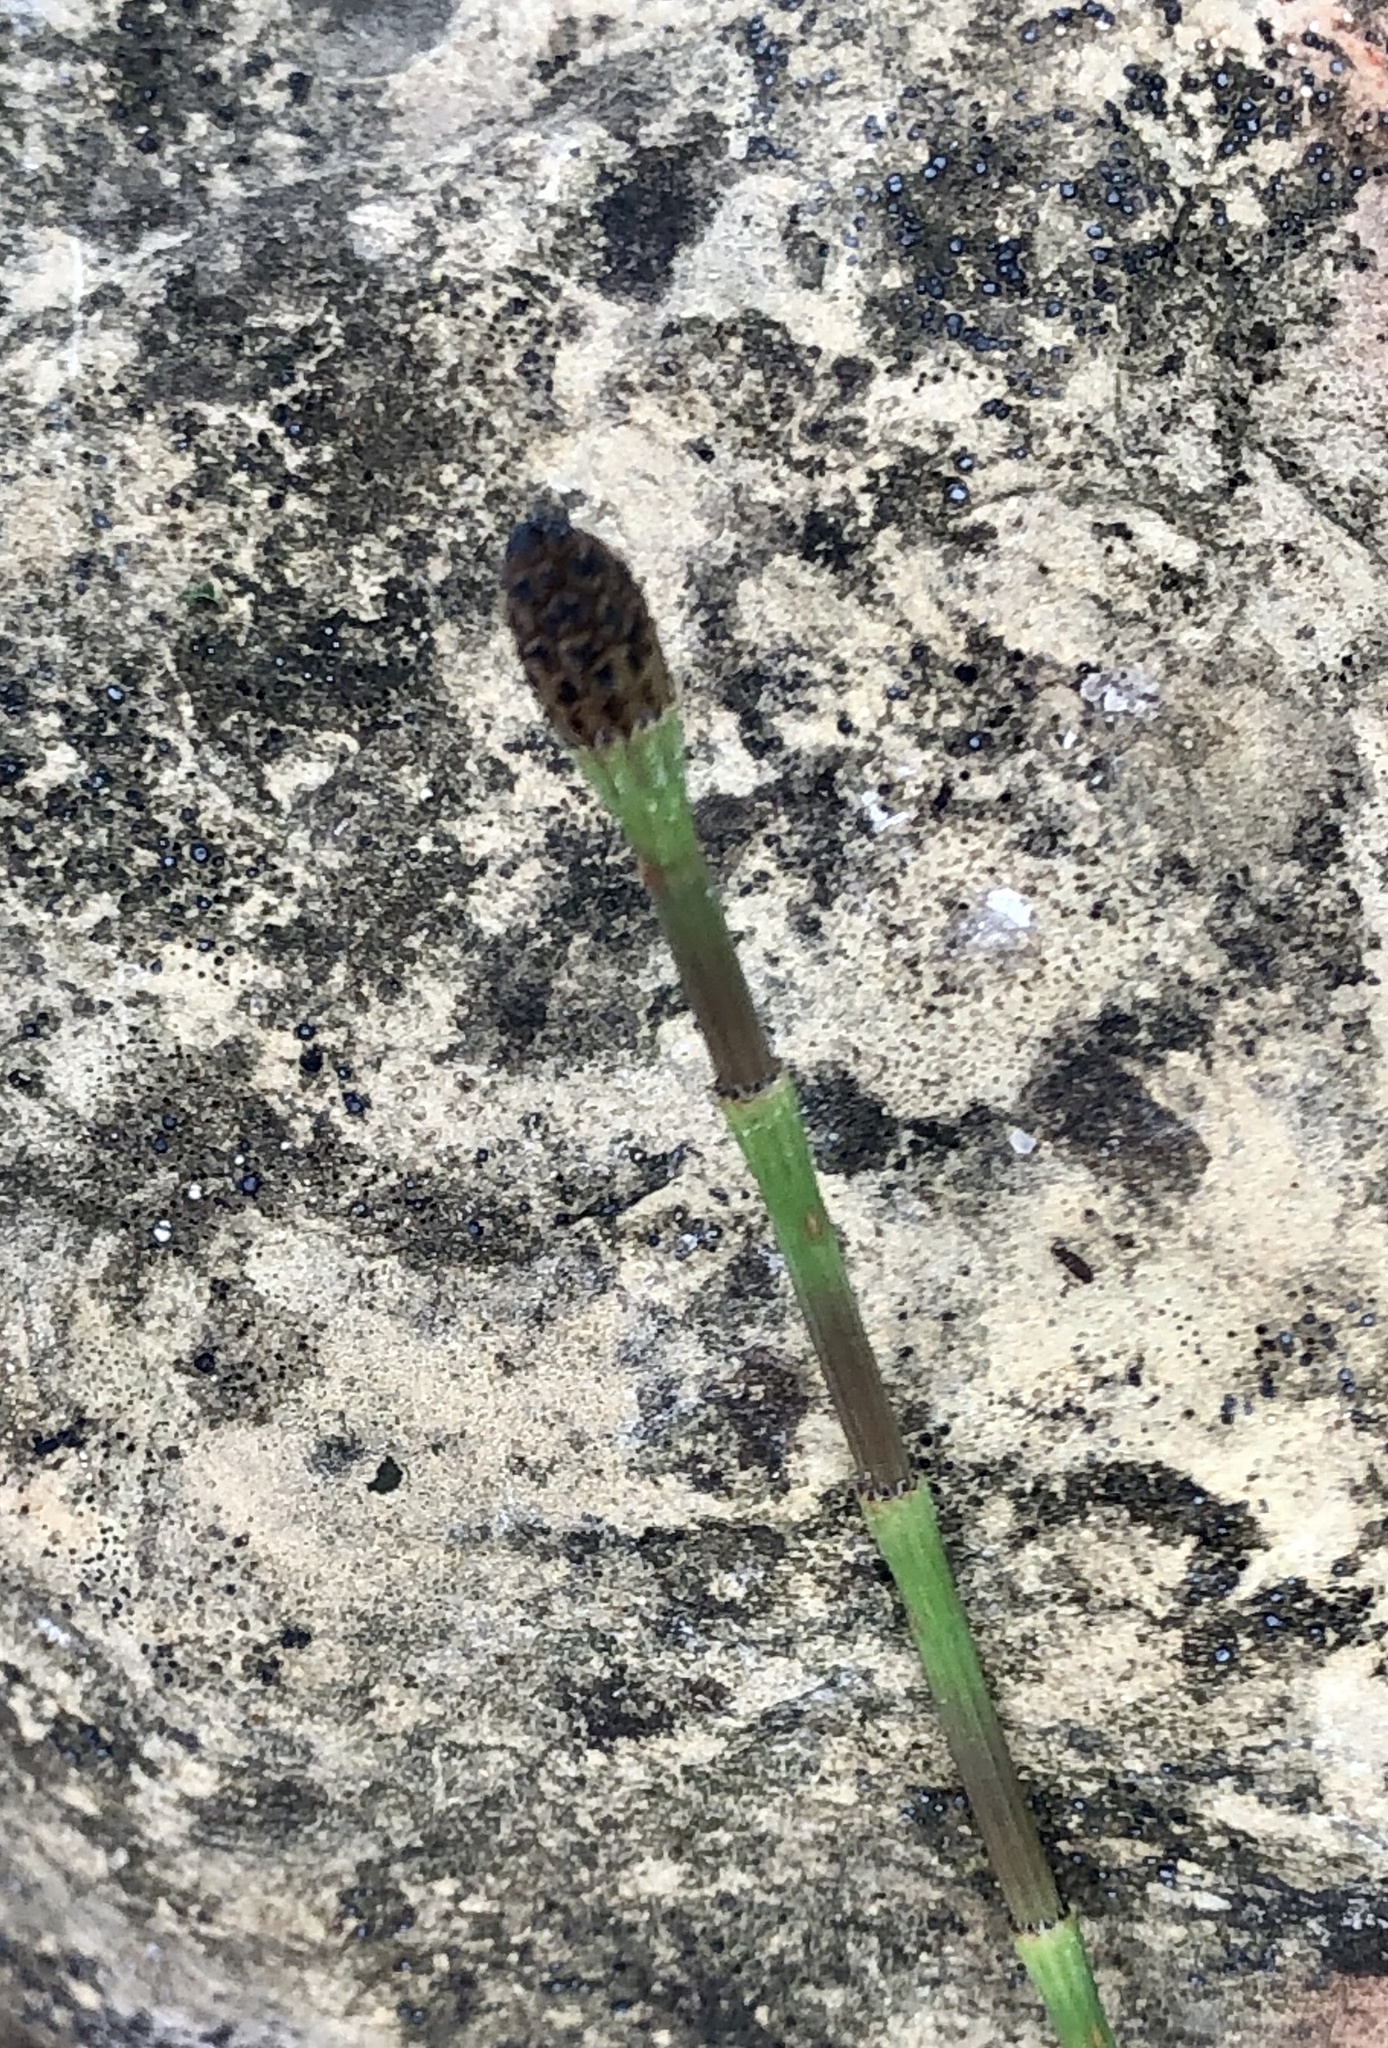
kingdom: Plantae
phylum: Tracheophyta
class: Polypodiopsida
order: Equisetales
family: Equisetaceae
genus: Equisetum
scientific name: Equisetum ramosissimum
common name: Branched horsetail
